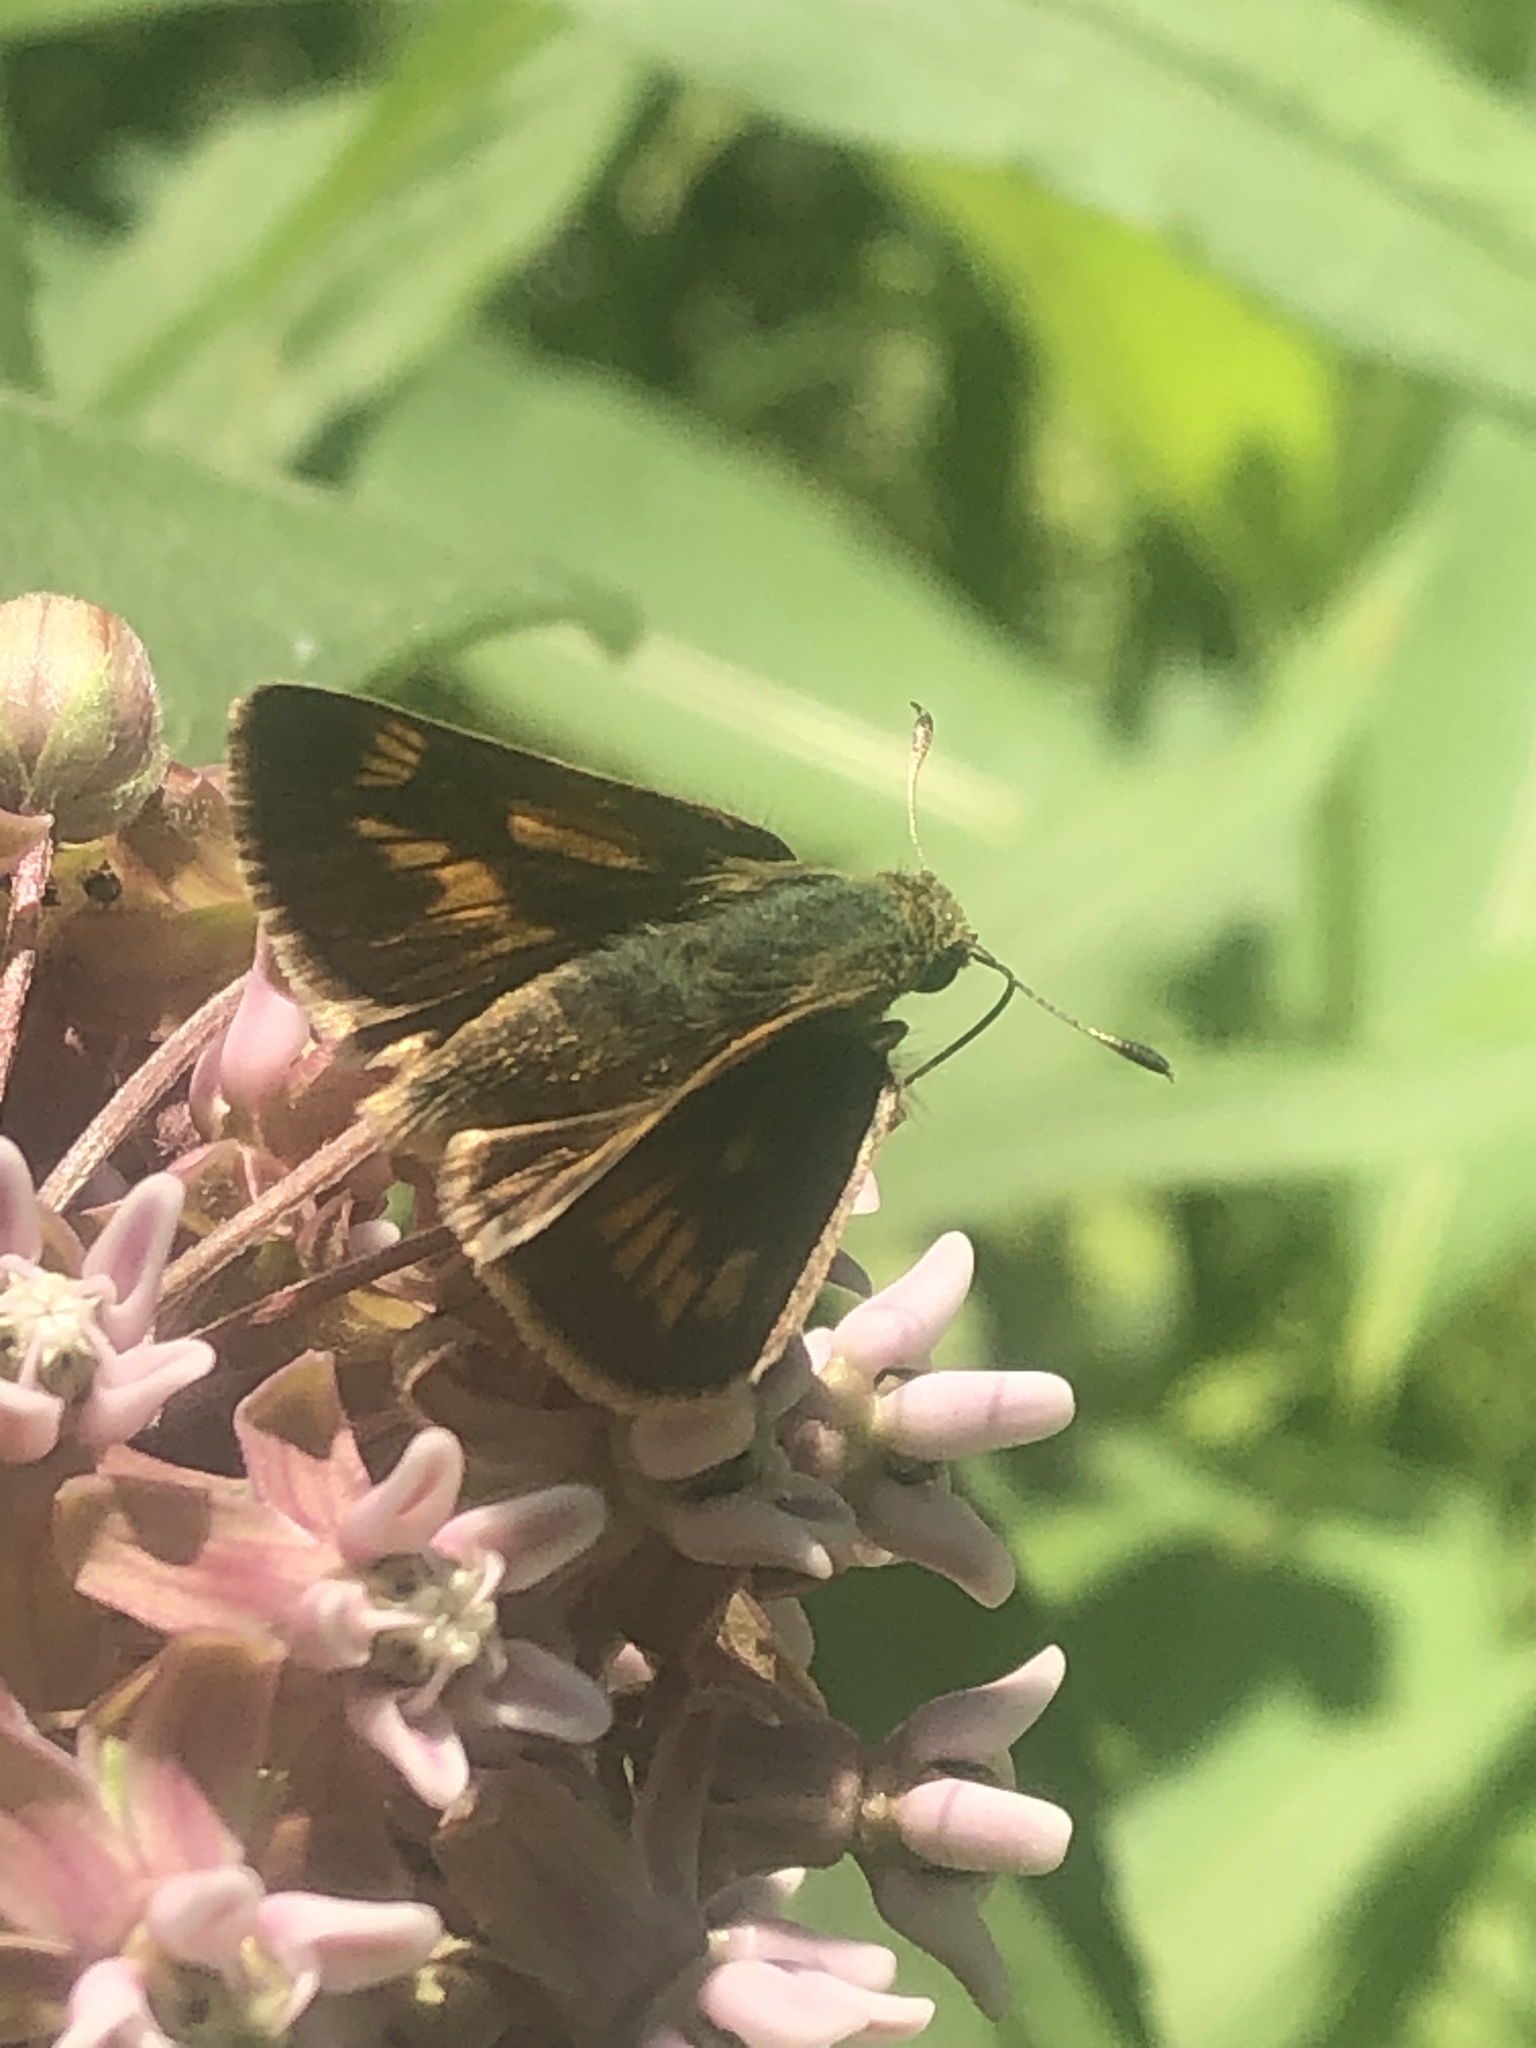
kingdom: Animalia
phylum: Arthropoda
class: Insecta
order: Lepidoptera
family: Hesperiidae
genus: Polites
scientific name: Polites mystic
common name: Long dash
